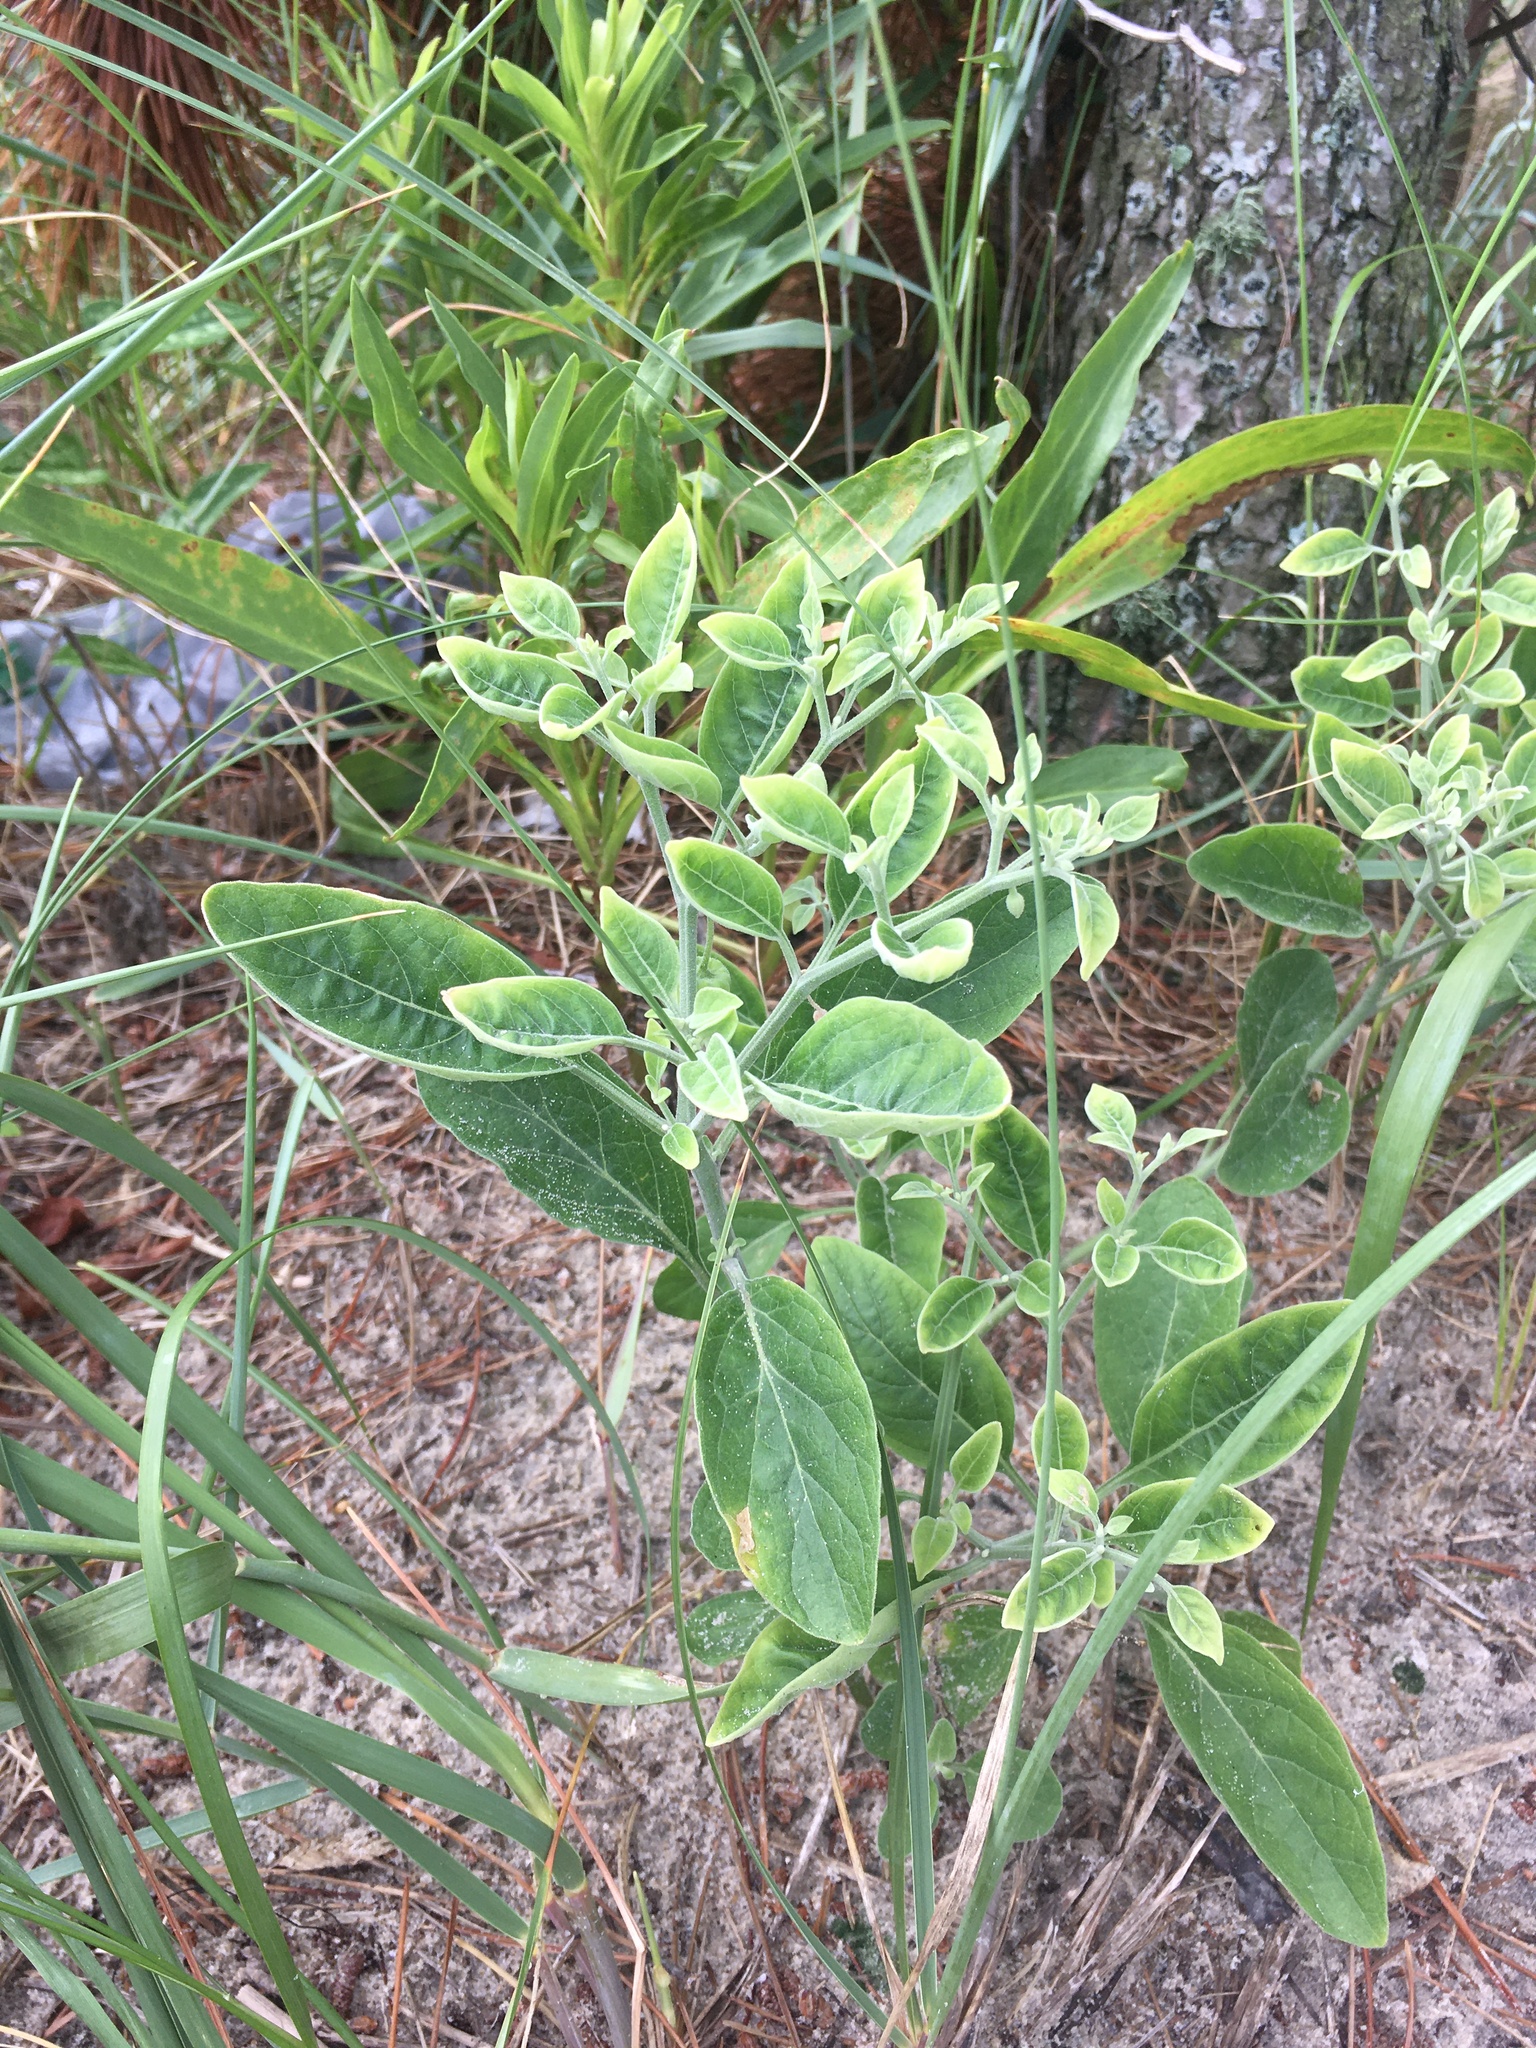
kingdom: Plantae
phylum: Tracheophyta
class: Magnoliopsida
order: Solanales
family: Solanaceae
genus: Physalis
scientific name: Physalis walteri
